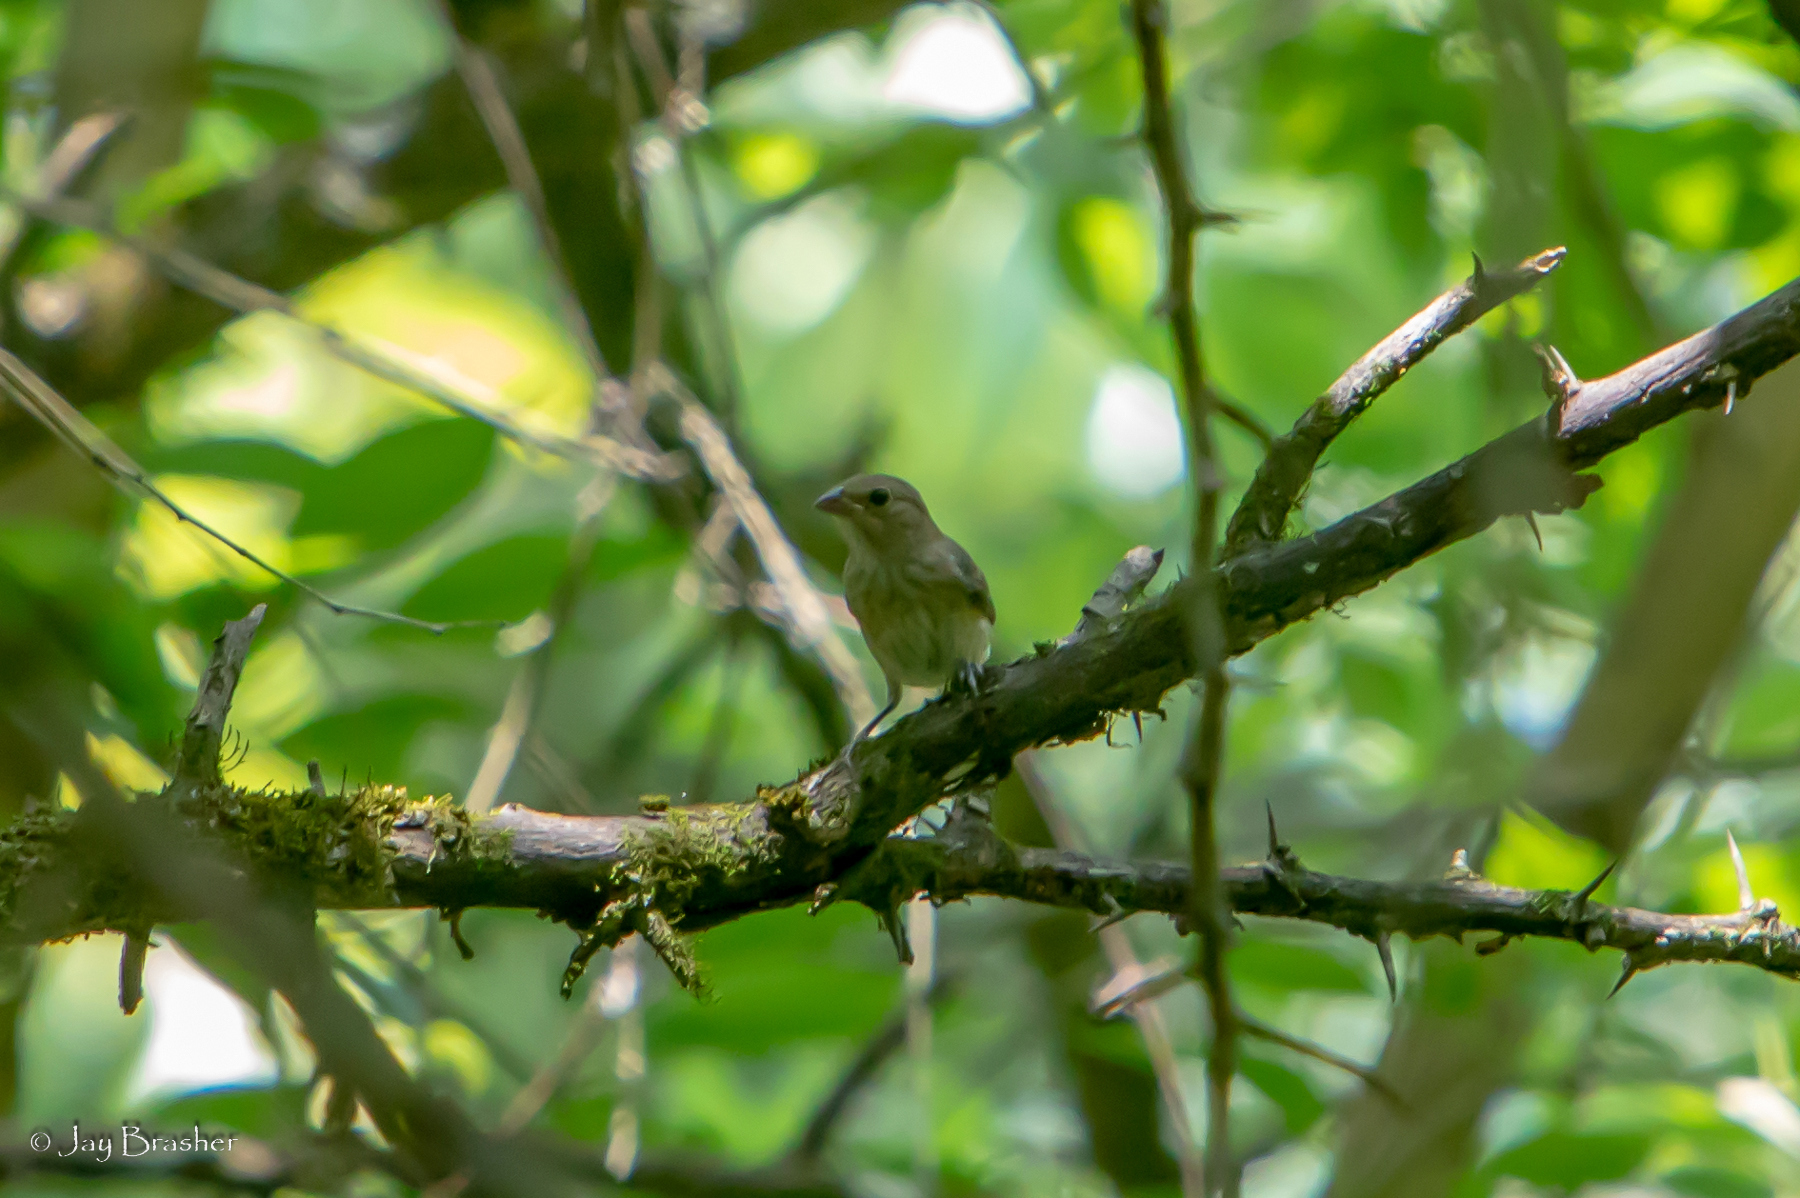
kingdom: Animalia
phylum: Chordata
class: Aves
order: Passeriformes
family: Cardinalidae
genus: Passerina
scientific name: Passerina cyanea
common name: Indigo bunting
